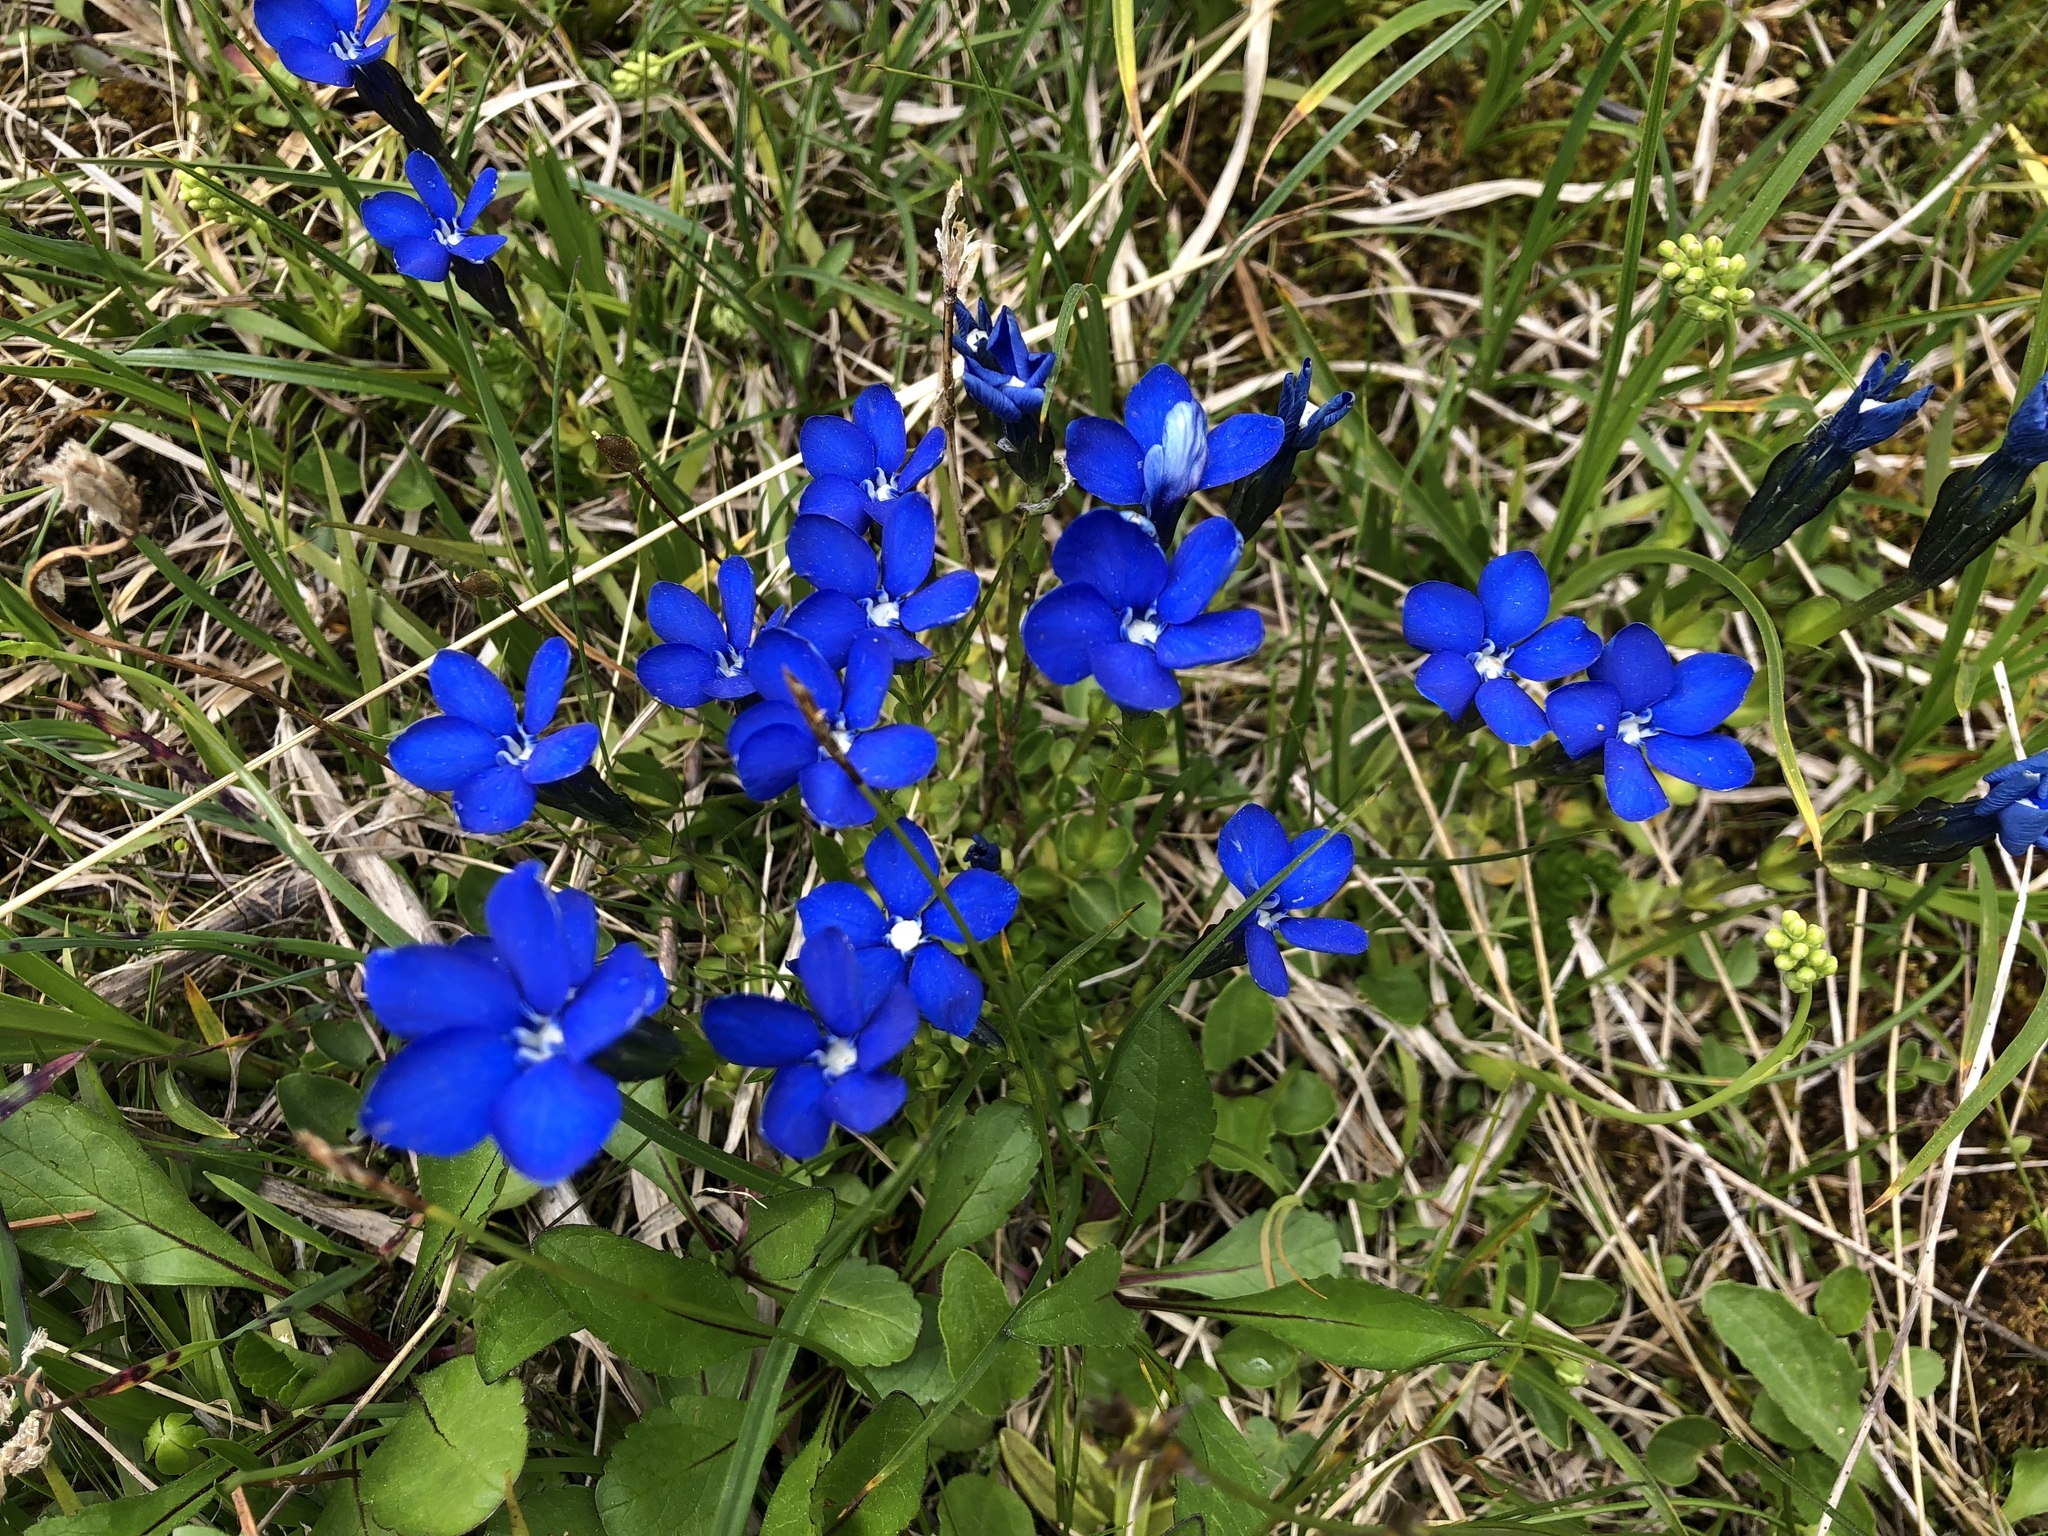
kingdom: Plantae
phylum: Tracheophyta
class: Magnoliopsida
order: Gentianales
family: Gentianaceae
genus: Gentiana
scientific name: Gentiana bavarica
